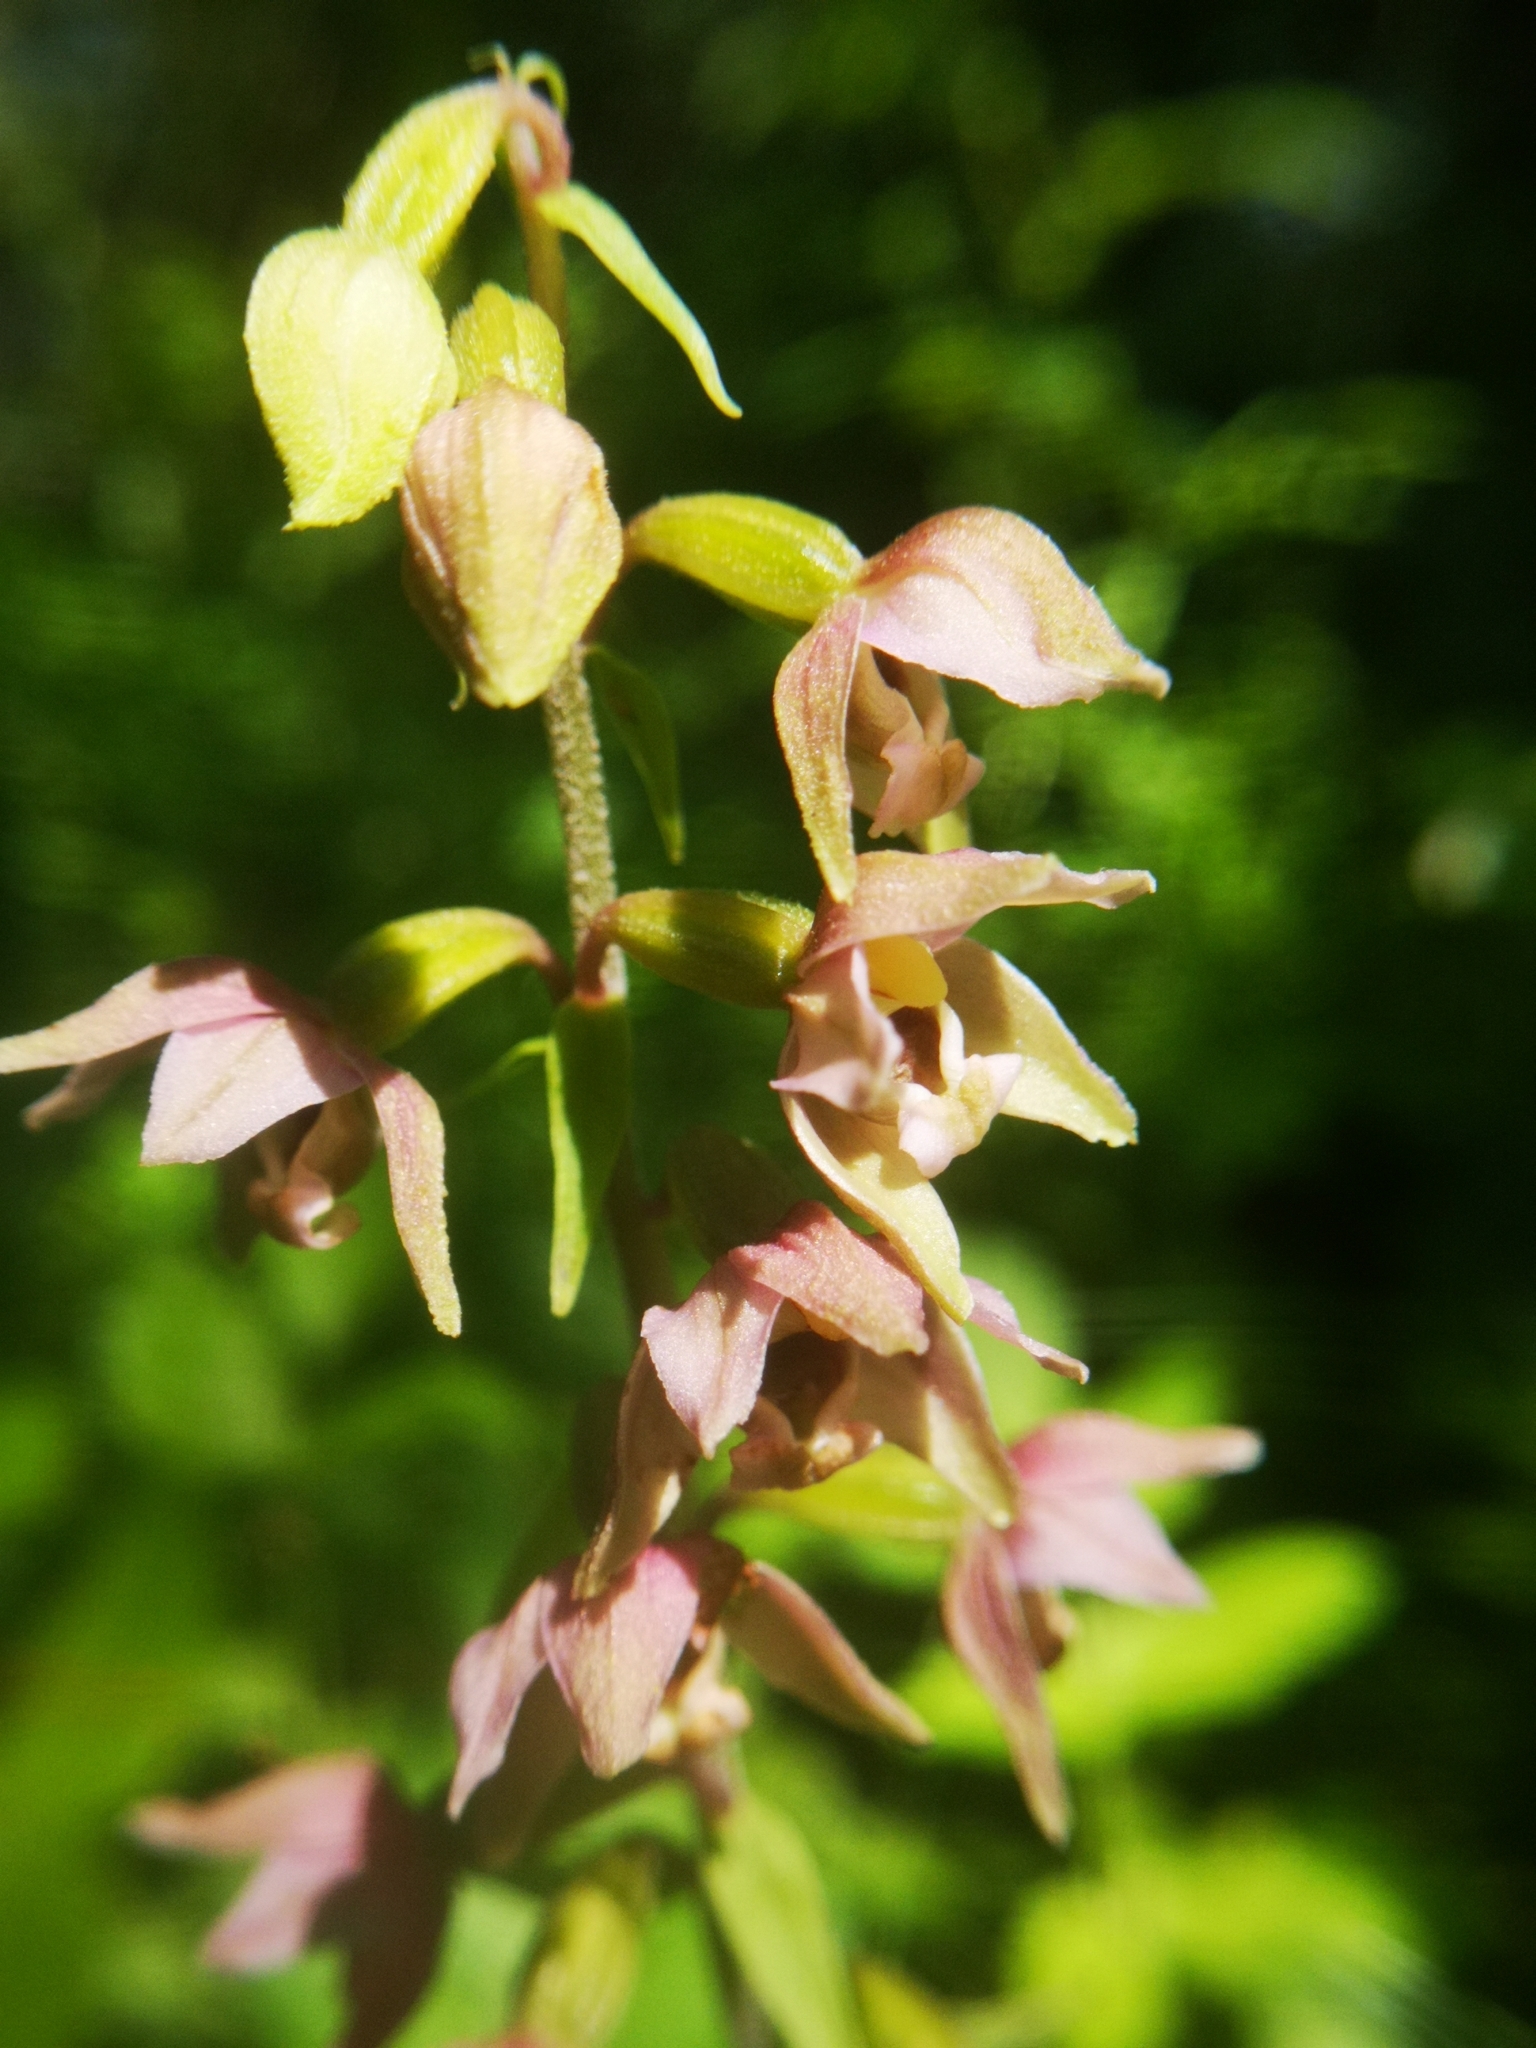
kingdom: Plantae
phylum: Tracheophyta
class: Liliopsida
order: Asparagales
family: Orchidaceae
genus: Epipactis
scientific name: Epipactis helleborine
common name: Broad-leaved helleborine
